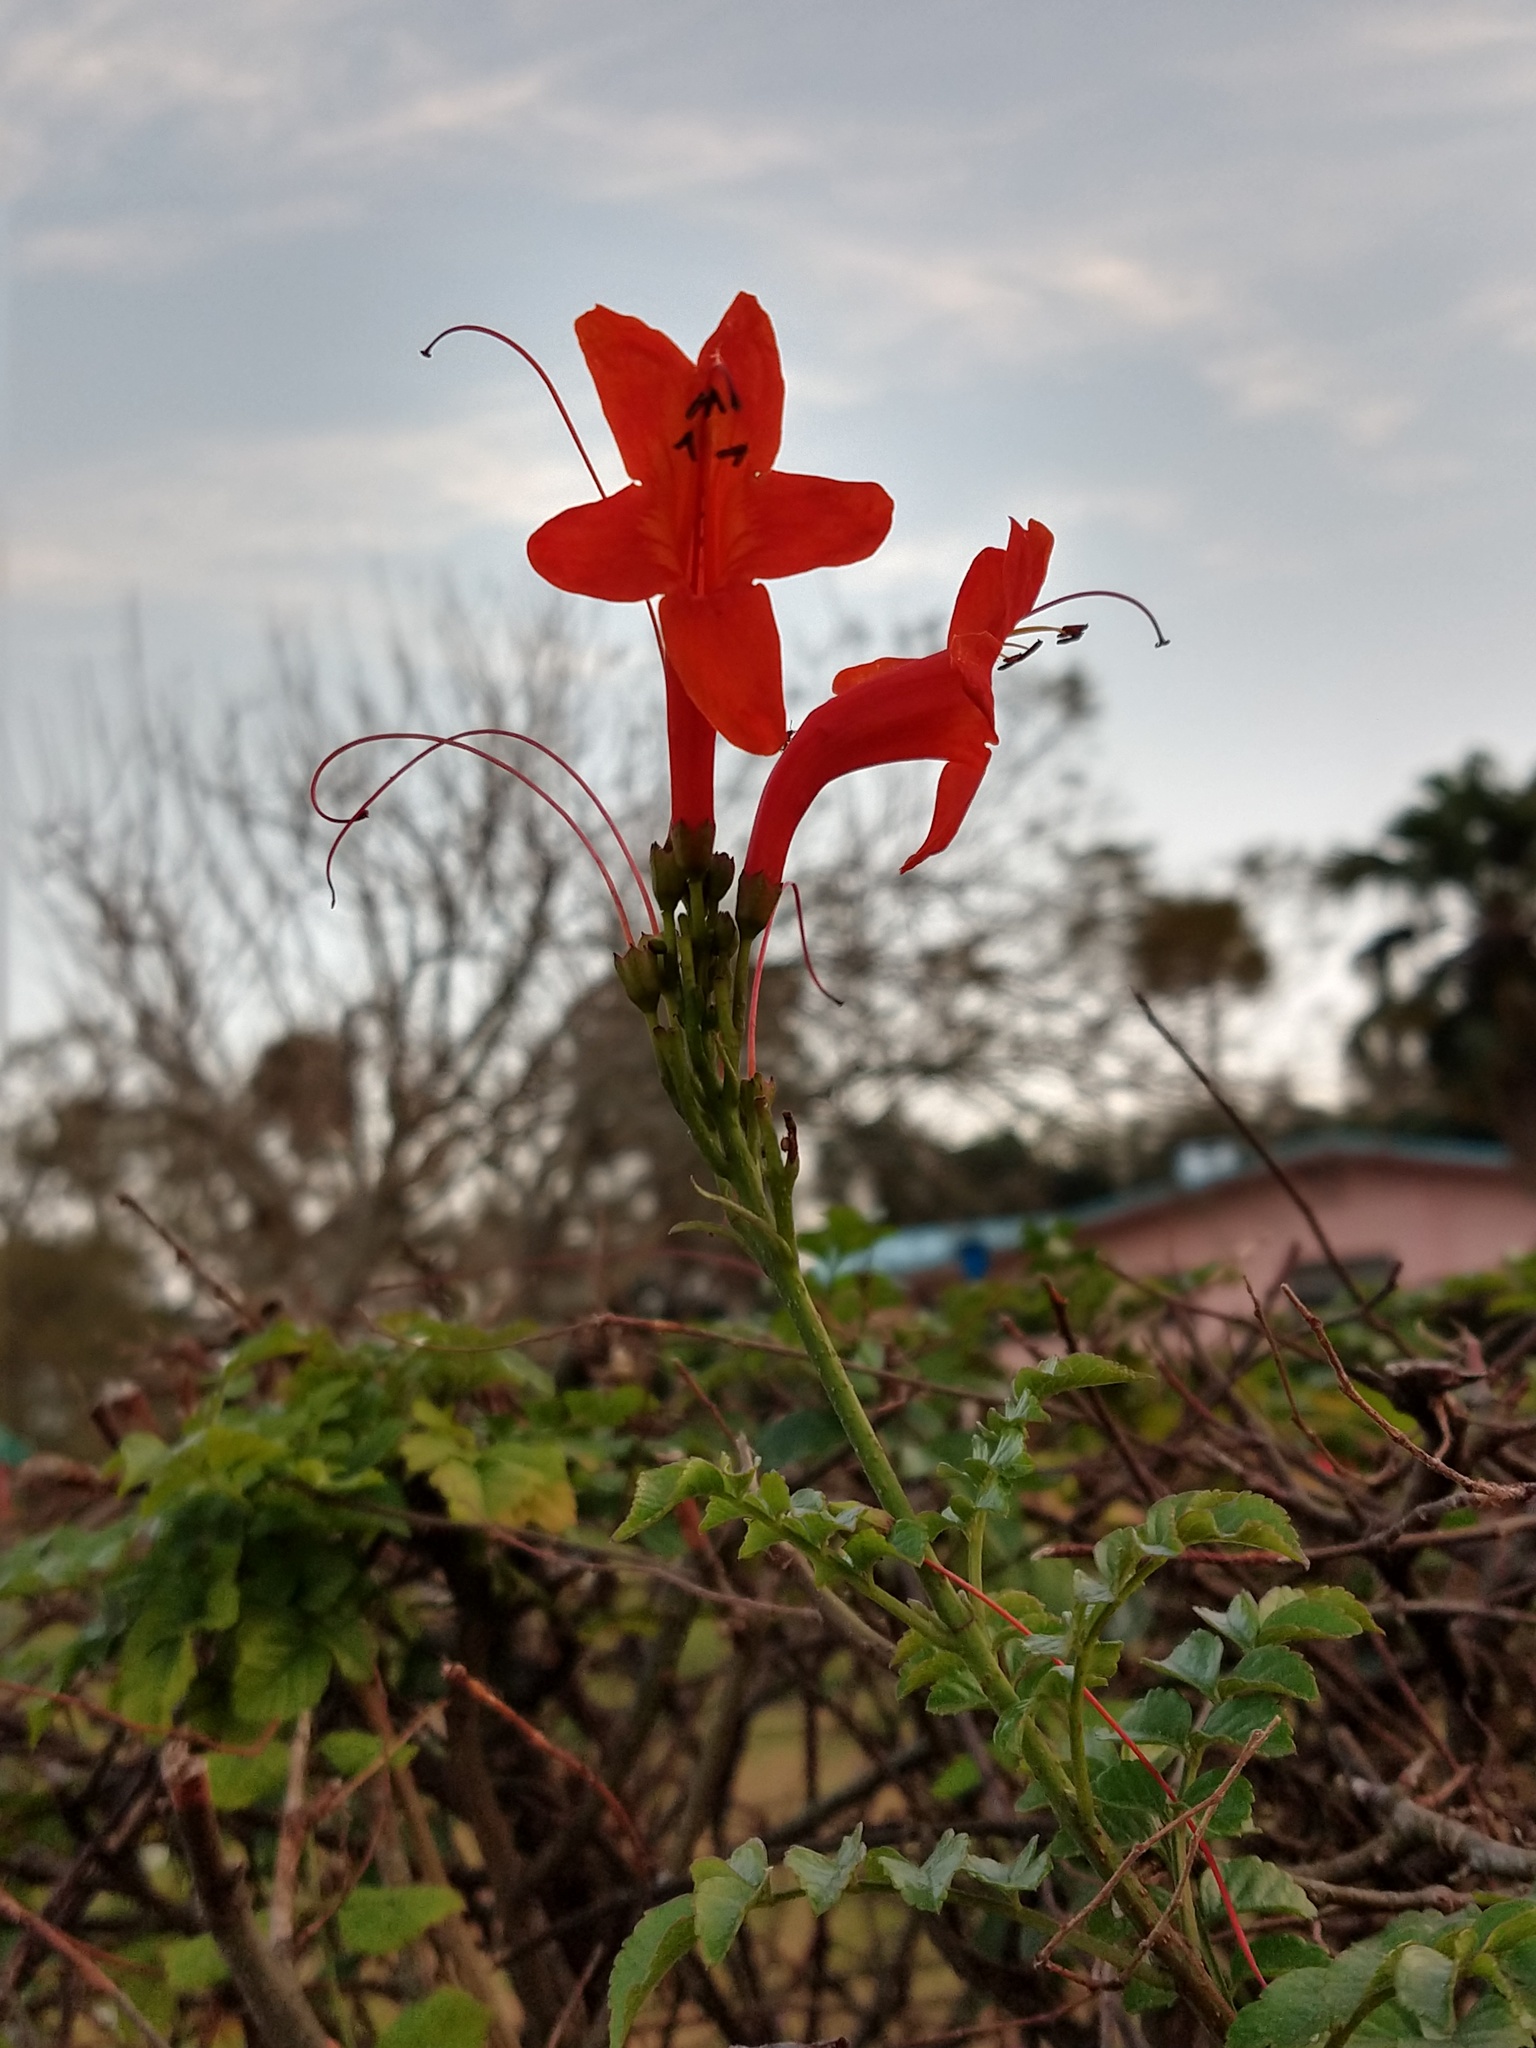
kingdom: Plantae
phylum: Tracheophyta
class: Magnoliopsida
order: Lamiales
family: Bignoniaceae
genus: Tecomaria
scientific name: Tecomaria capensis
